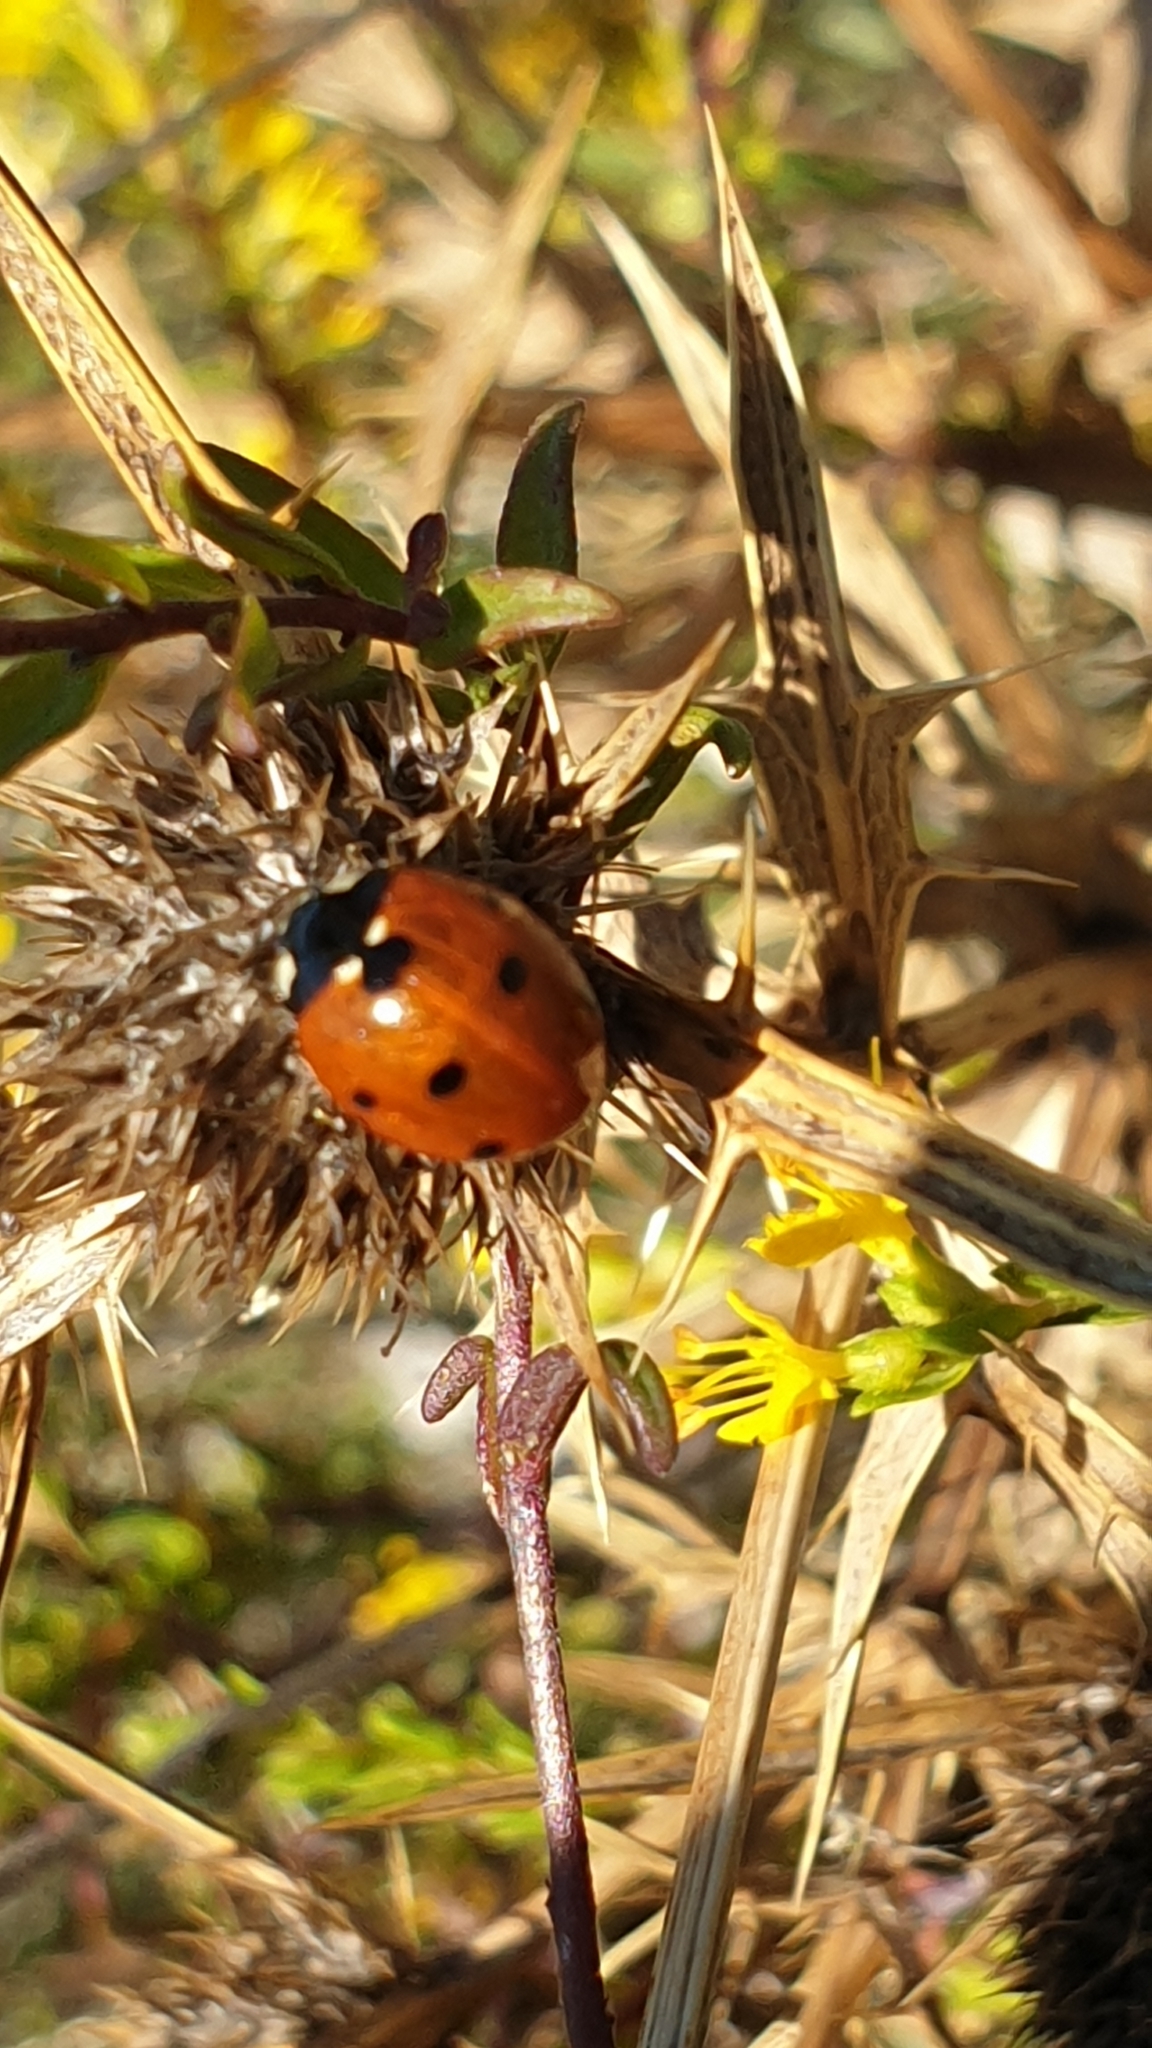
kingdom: Animalia
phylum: Arthropoda
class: Insecta
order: Coleoptera
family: Coccinellidae
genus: Coccinella
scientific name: Coccinella septempunctata
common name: Sevenspotted lady beetle
